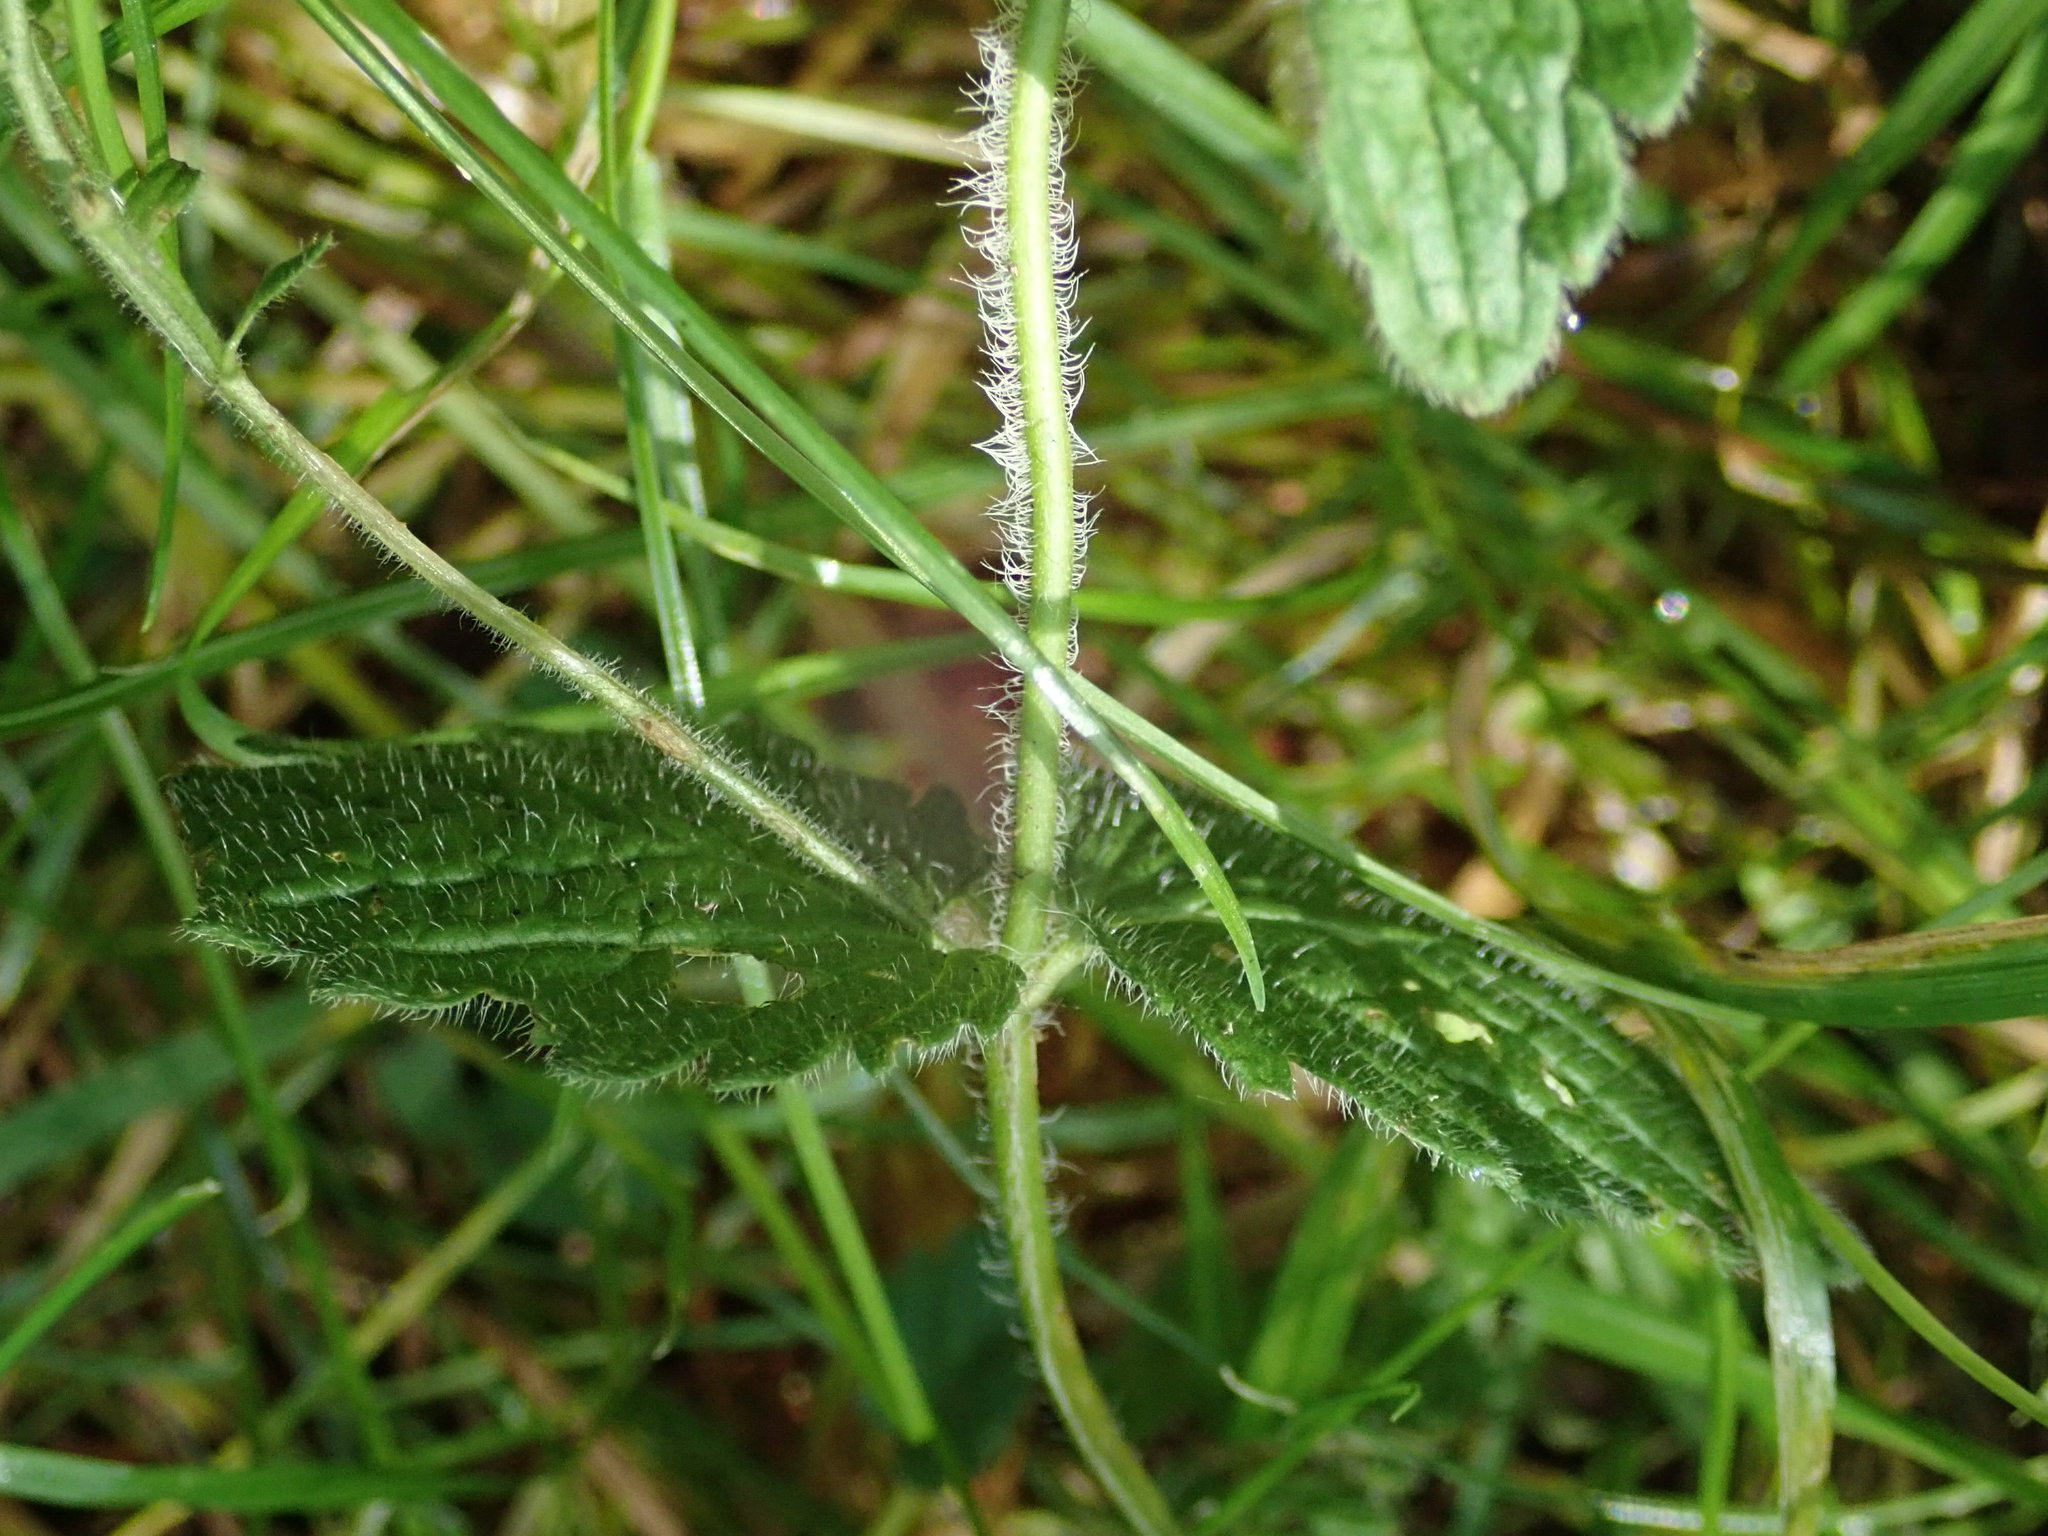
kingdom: Plantae
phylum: Tracheophyta
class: Magnoliopsida
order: Lamiales
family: Plantaginaceae
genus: Veronica
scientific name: Veronica chamaedrys
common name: Germander speedwell
